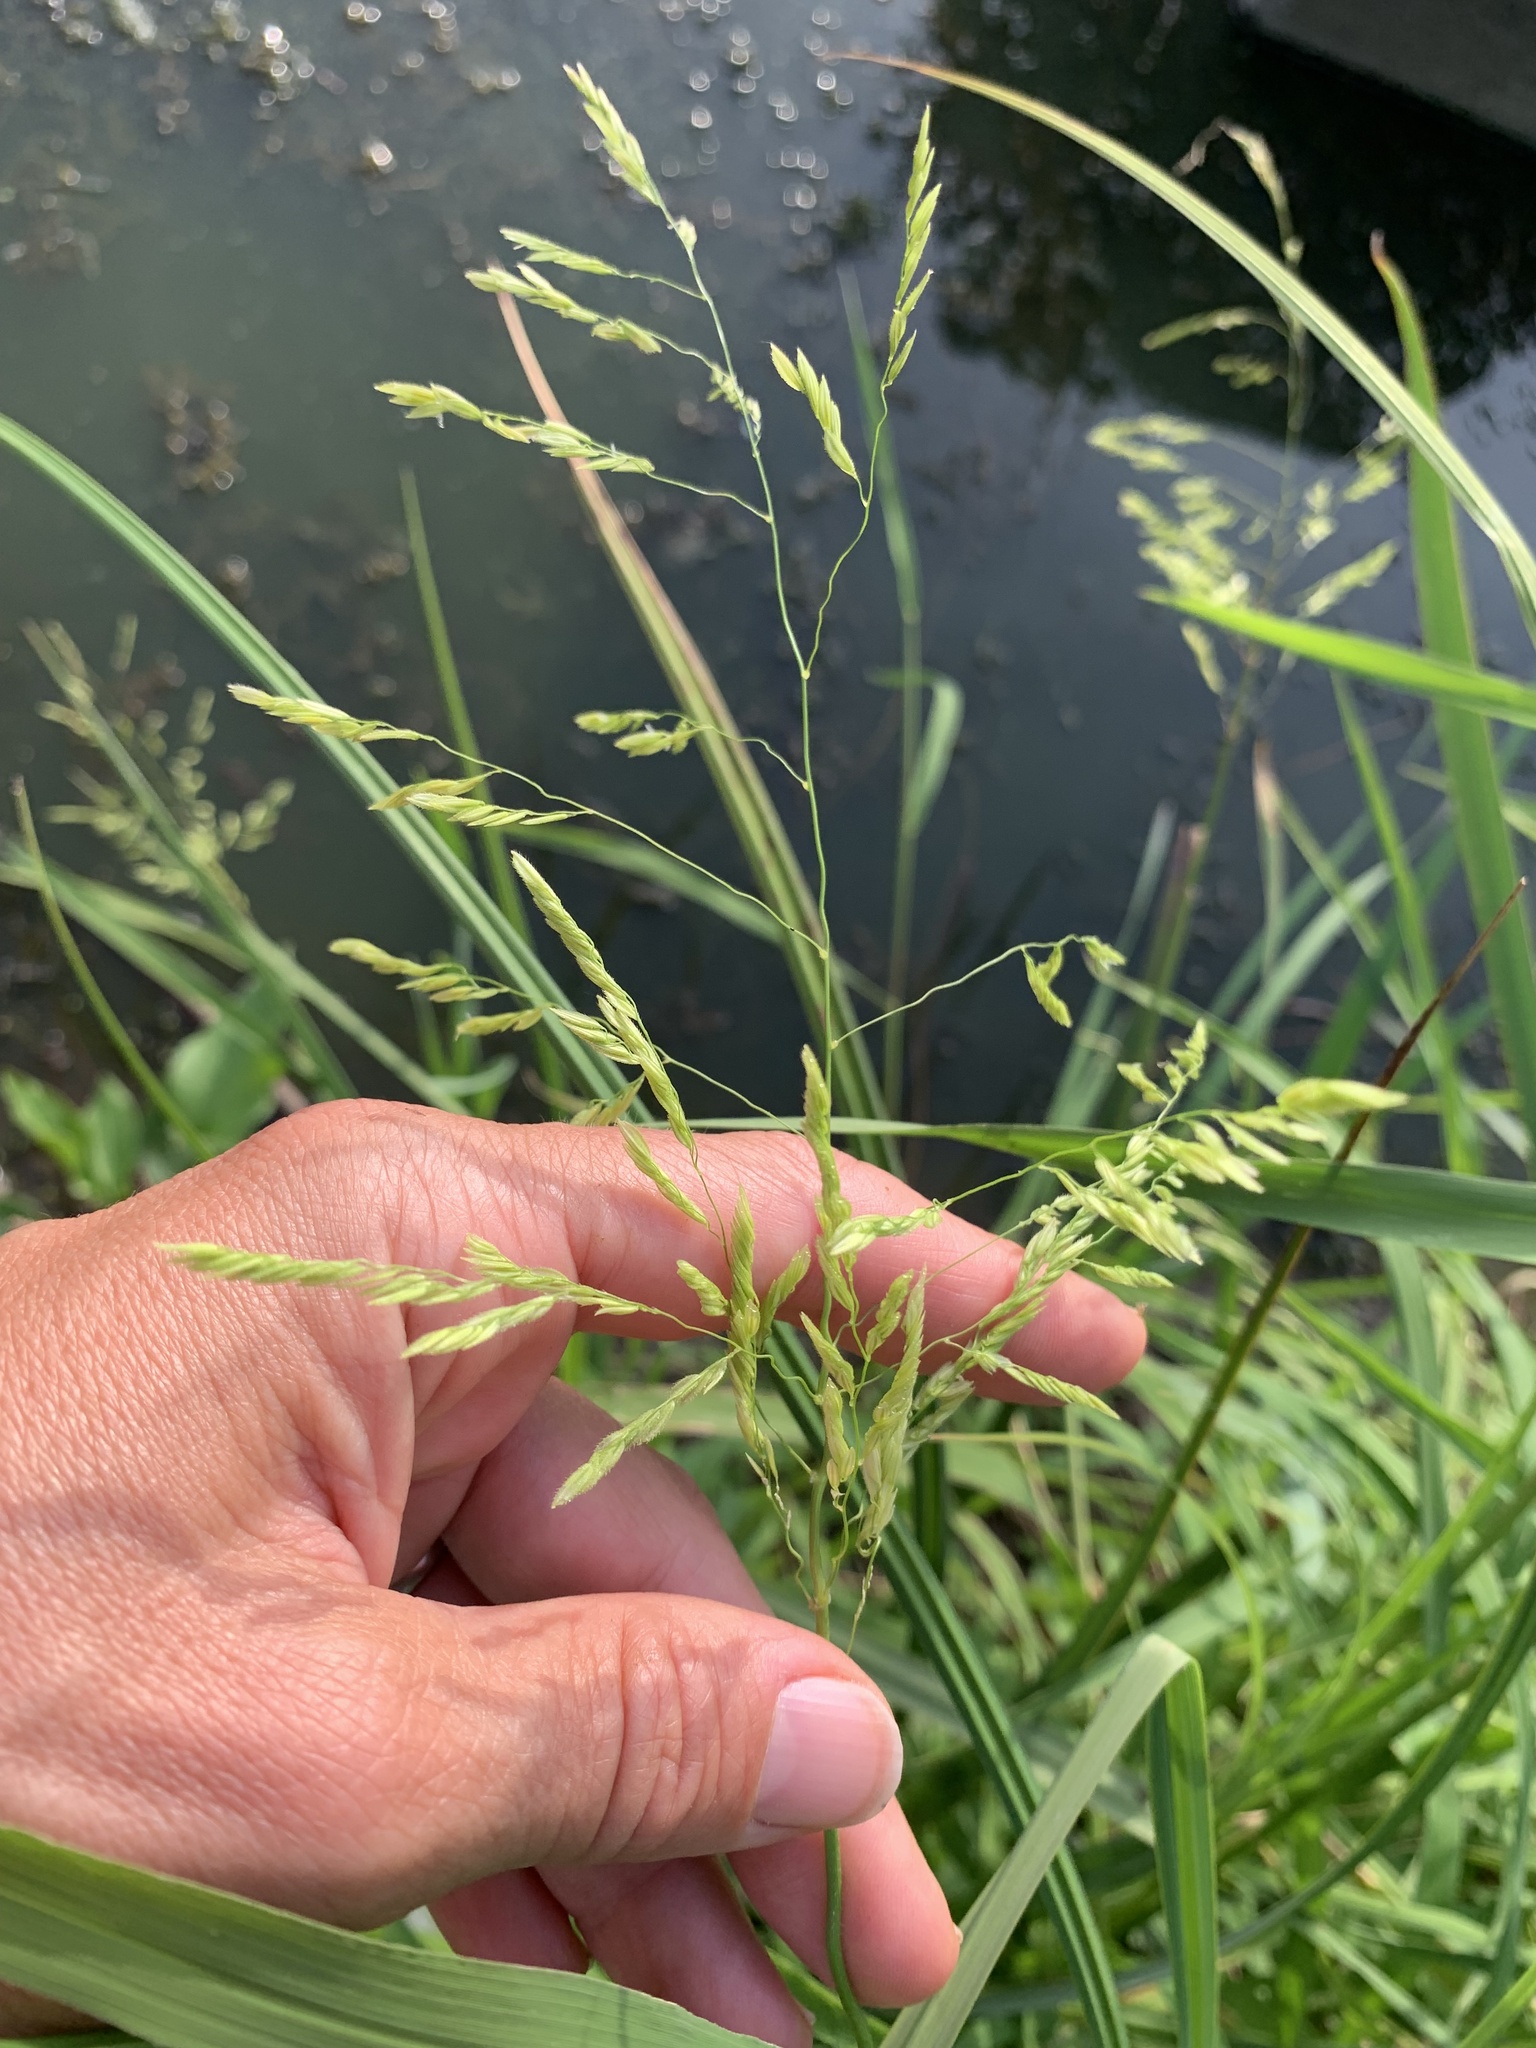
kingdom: Plantae
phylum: Tracheophyta
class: Liliopsida
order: Poales
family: Poaceae
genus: Leersia
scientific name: Leersia oryzoides
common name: Cut-grass
